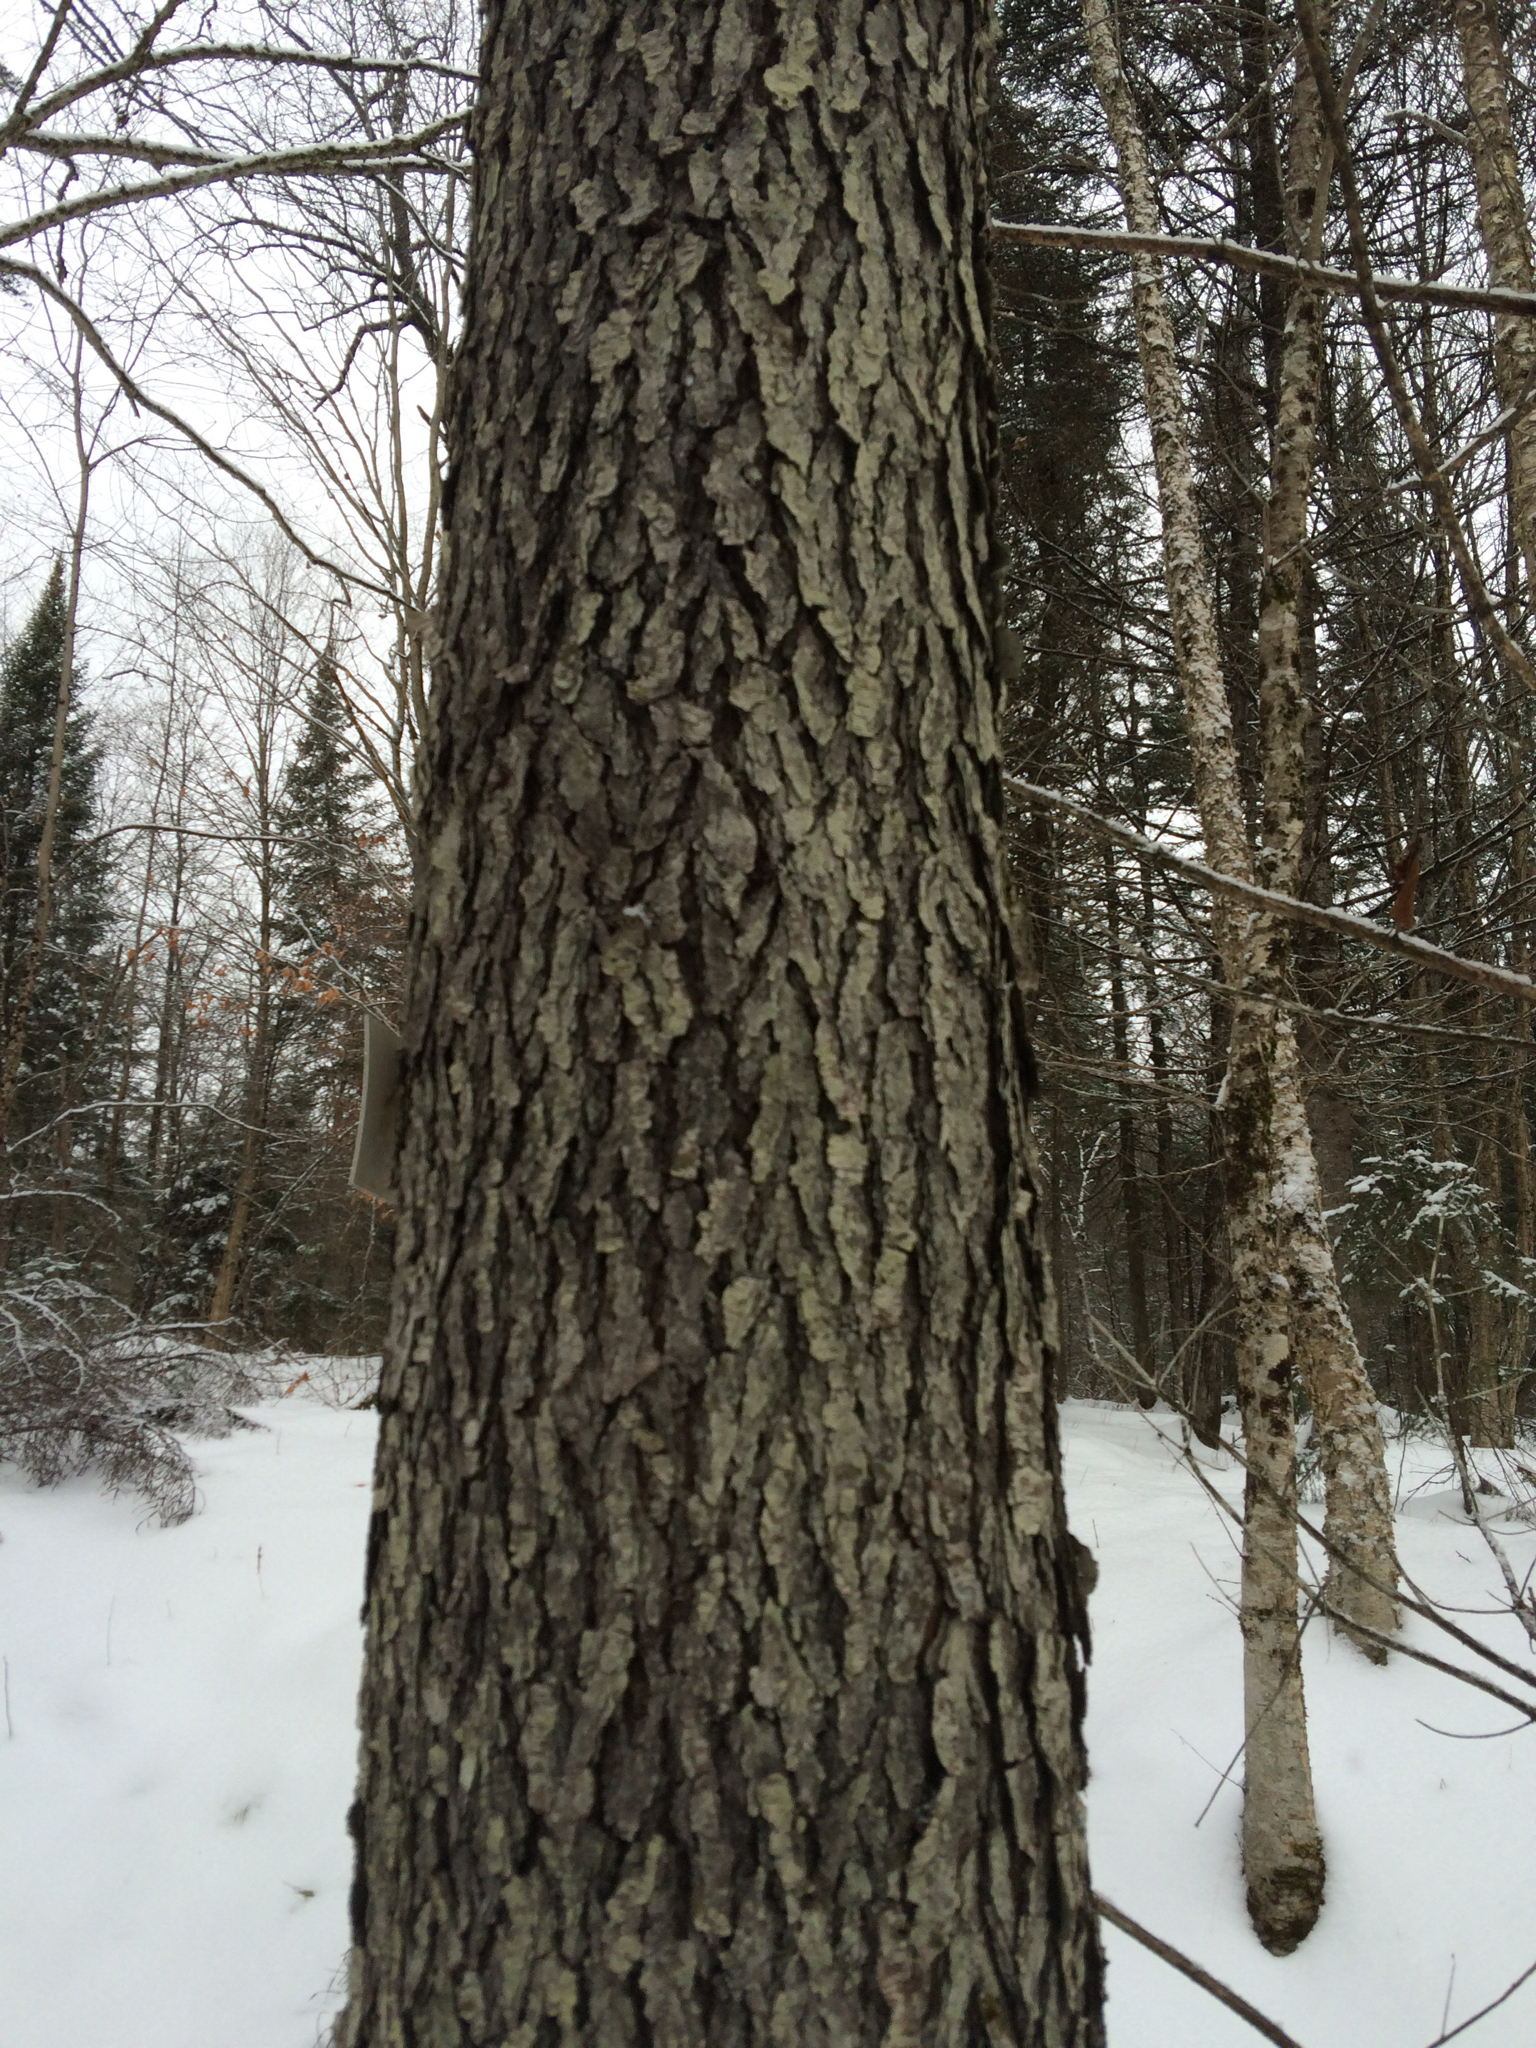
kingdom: Plantae
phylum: Tracheophyta
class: Magnoliopsida
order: Rosales
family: Rosaceae
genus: Prunus
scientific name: Prunus serotina
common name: Black cherry
